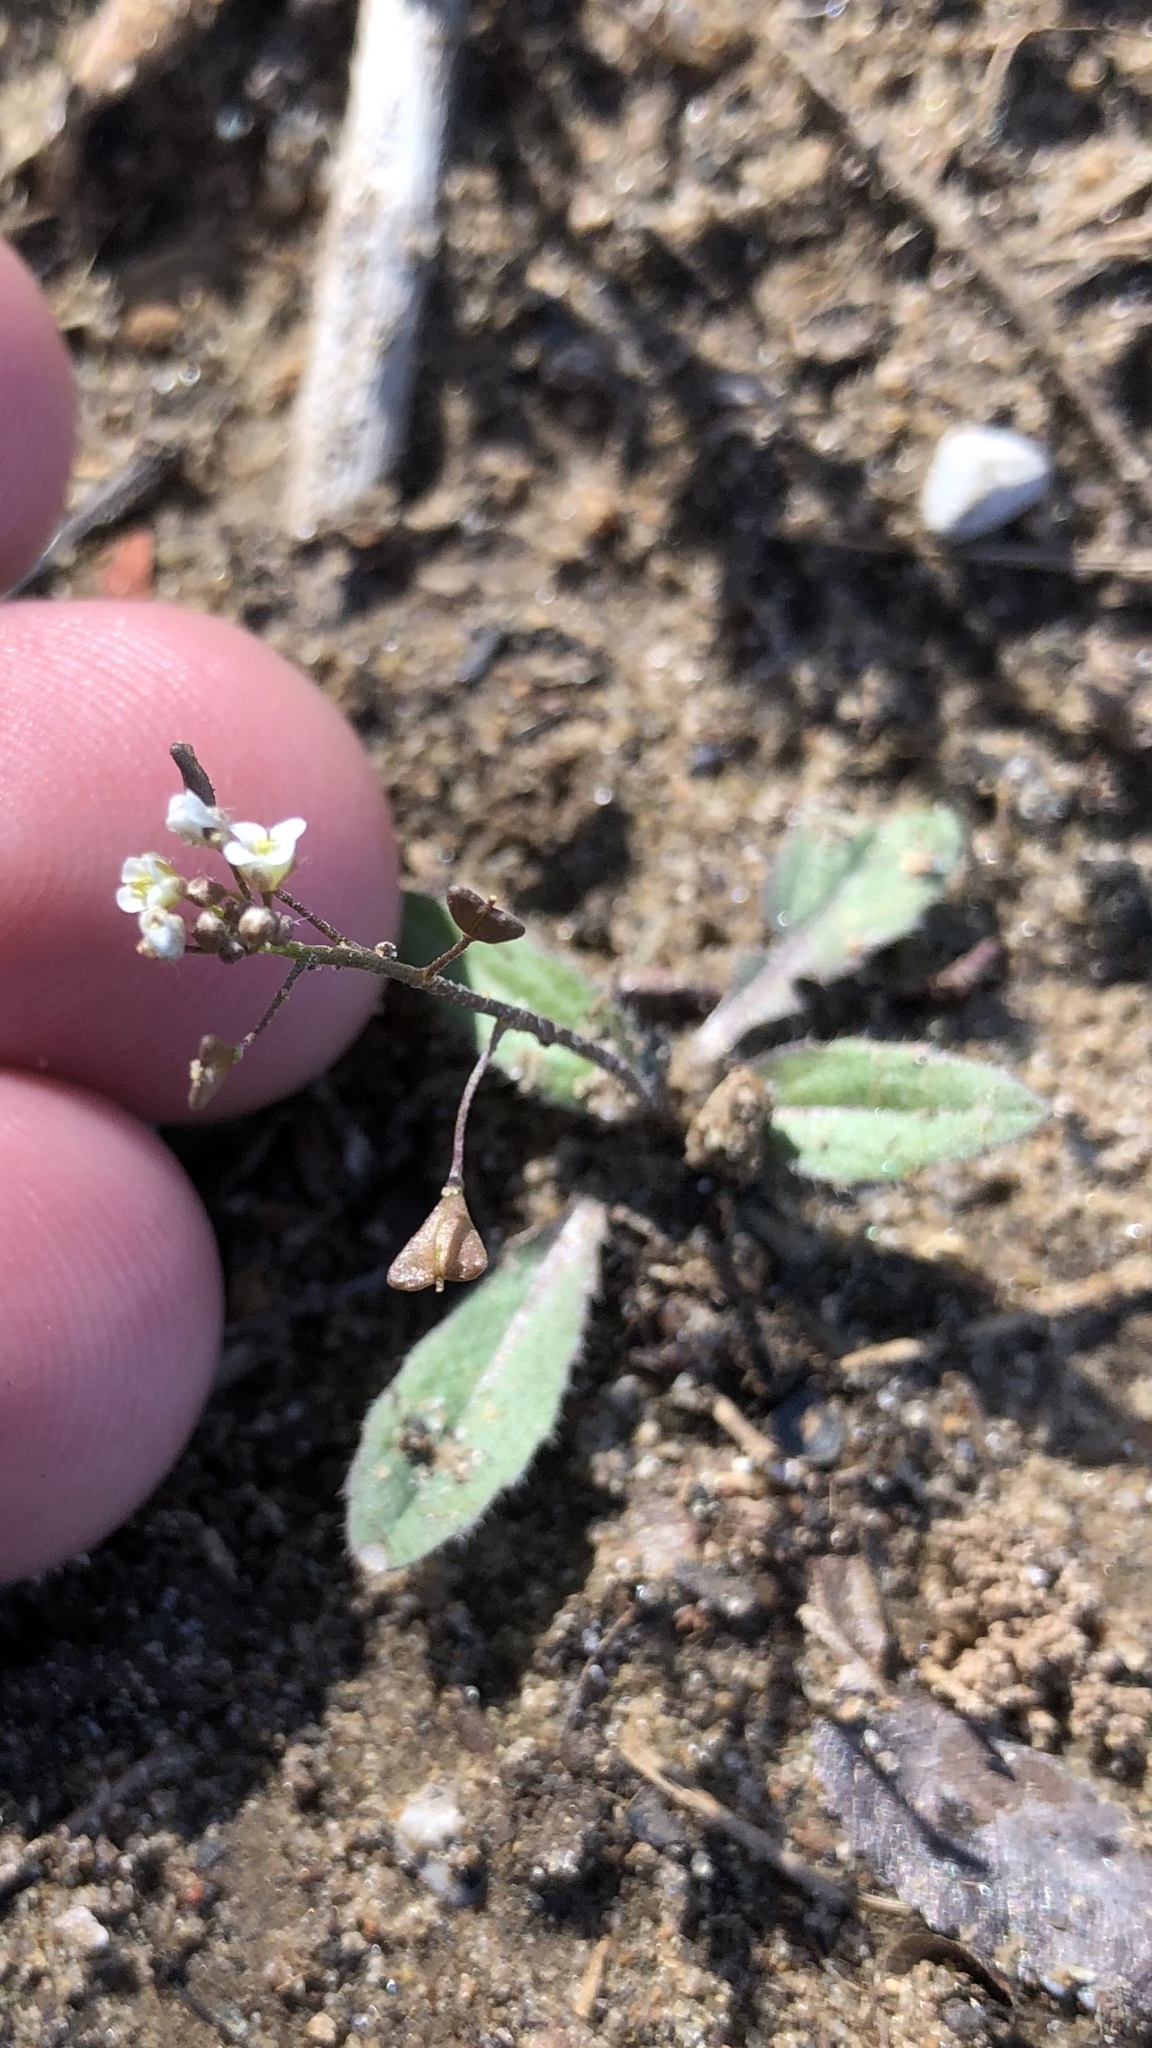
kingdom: Plantae
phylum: Tracheophyta
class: Magnoliopsida
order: Brassicales
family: Brassicaceae
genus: Capsella
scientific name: Capsella bursa-pastoris
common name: Shepherd's purse
